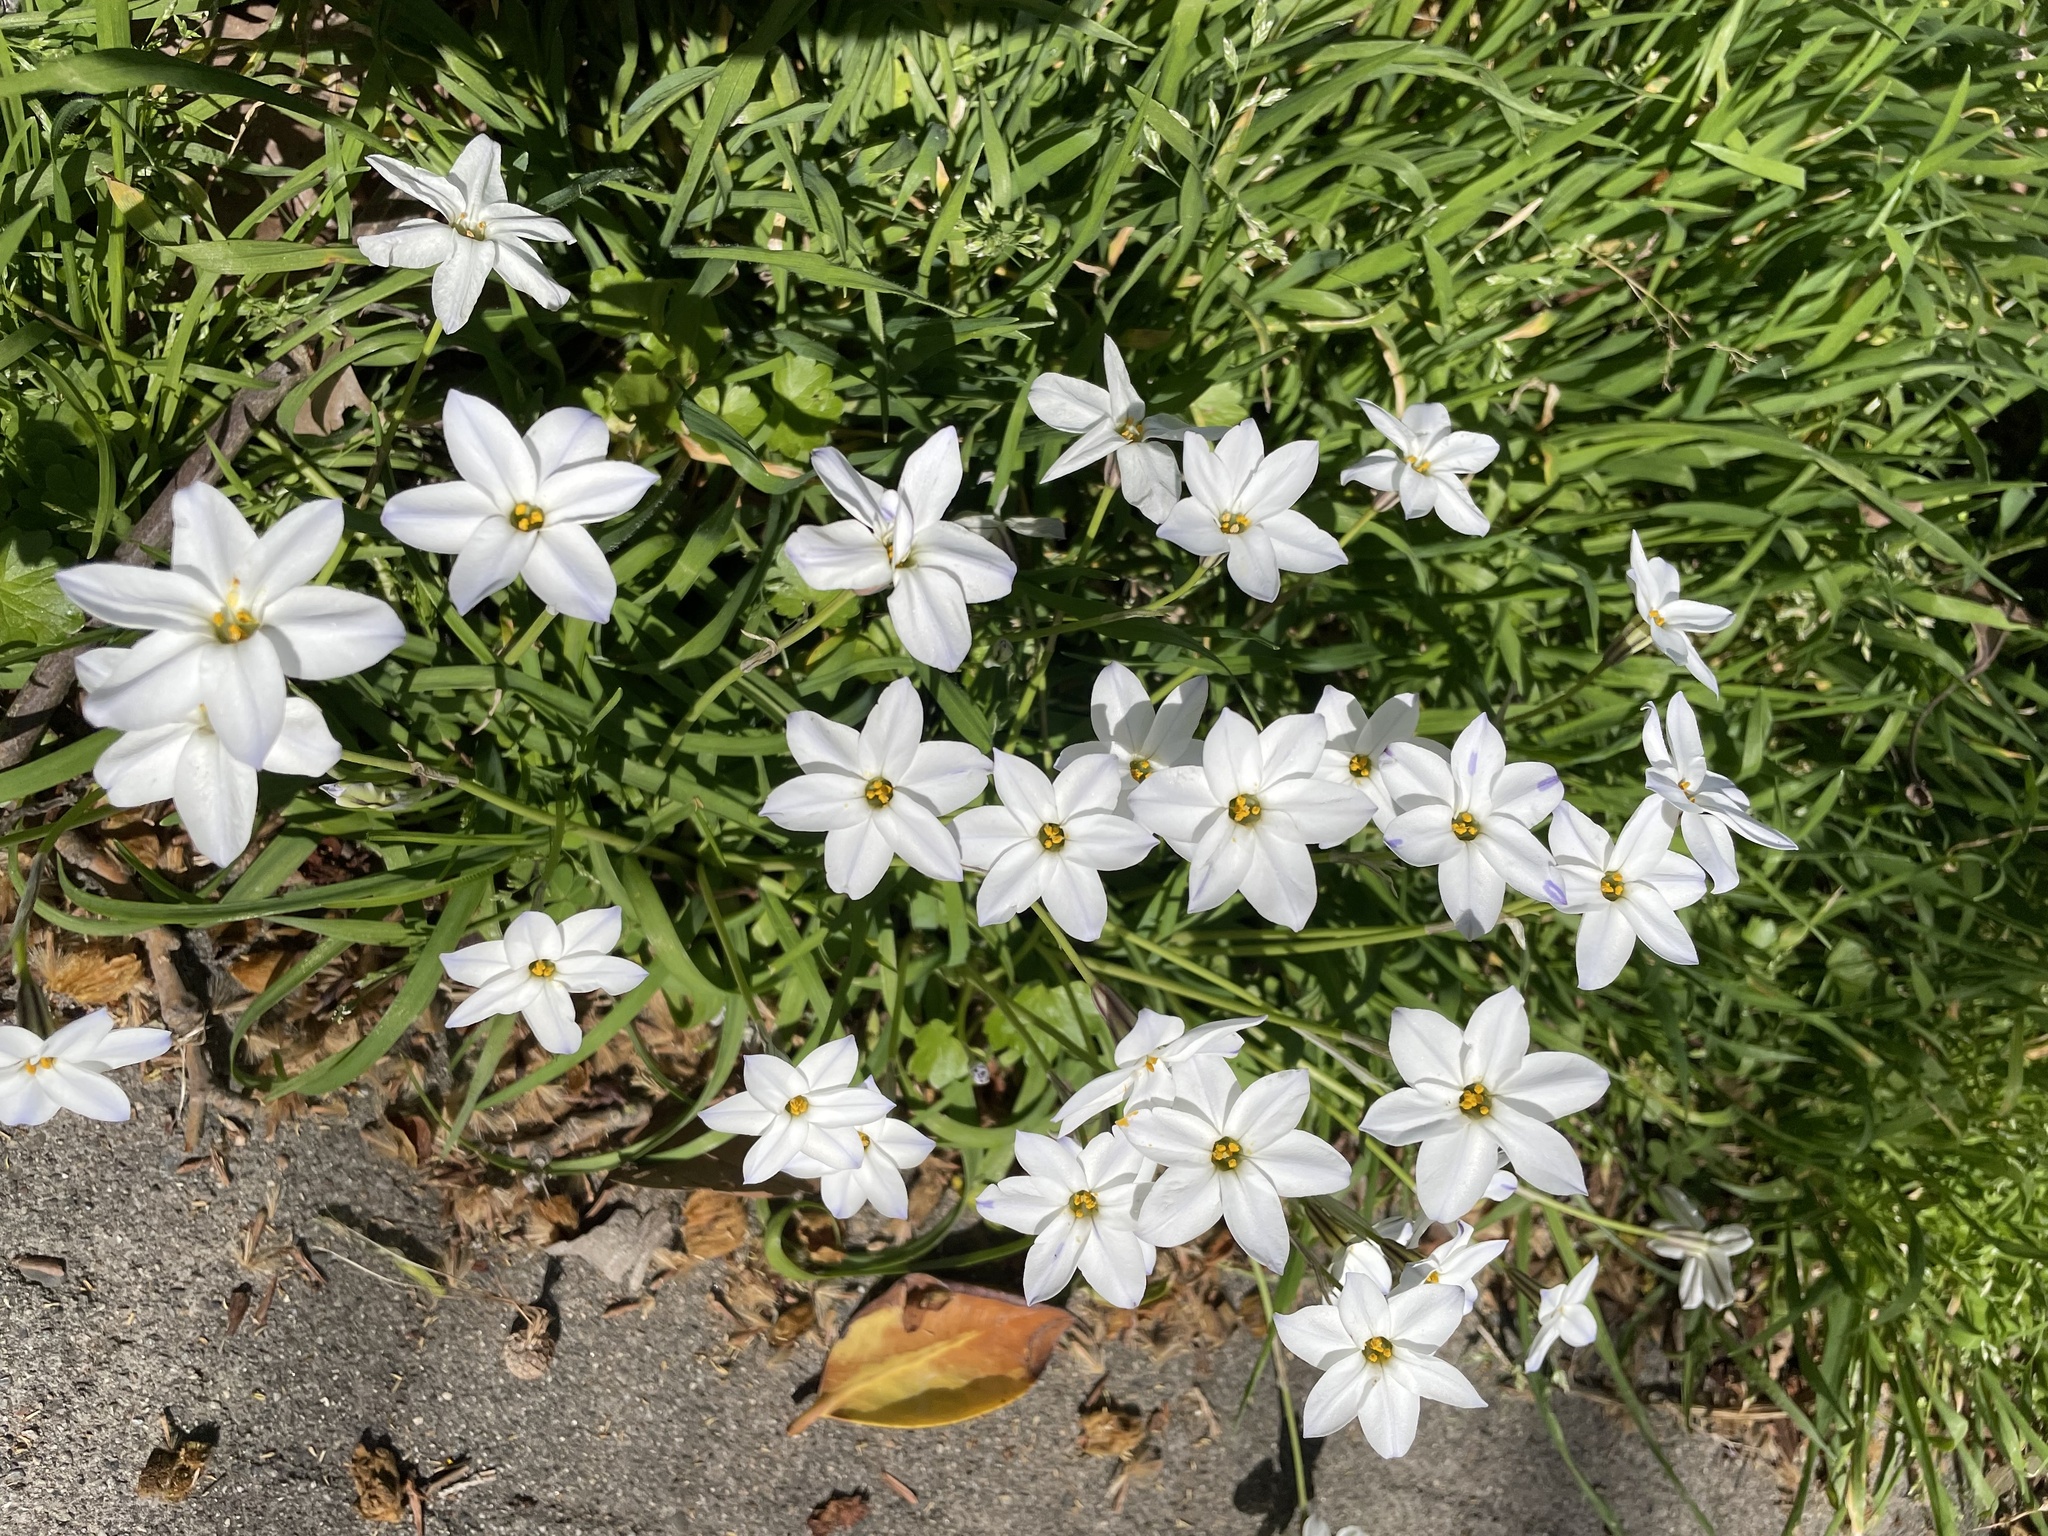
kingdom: Plantae
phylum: Tracheophyta
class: Liliopsida
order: Asparagales
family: Amaryllidaceae
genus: Ipheion
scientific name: Ipheion uniflorum
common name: Spring starflower
